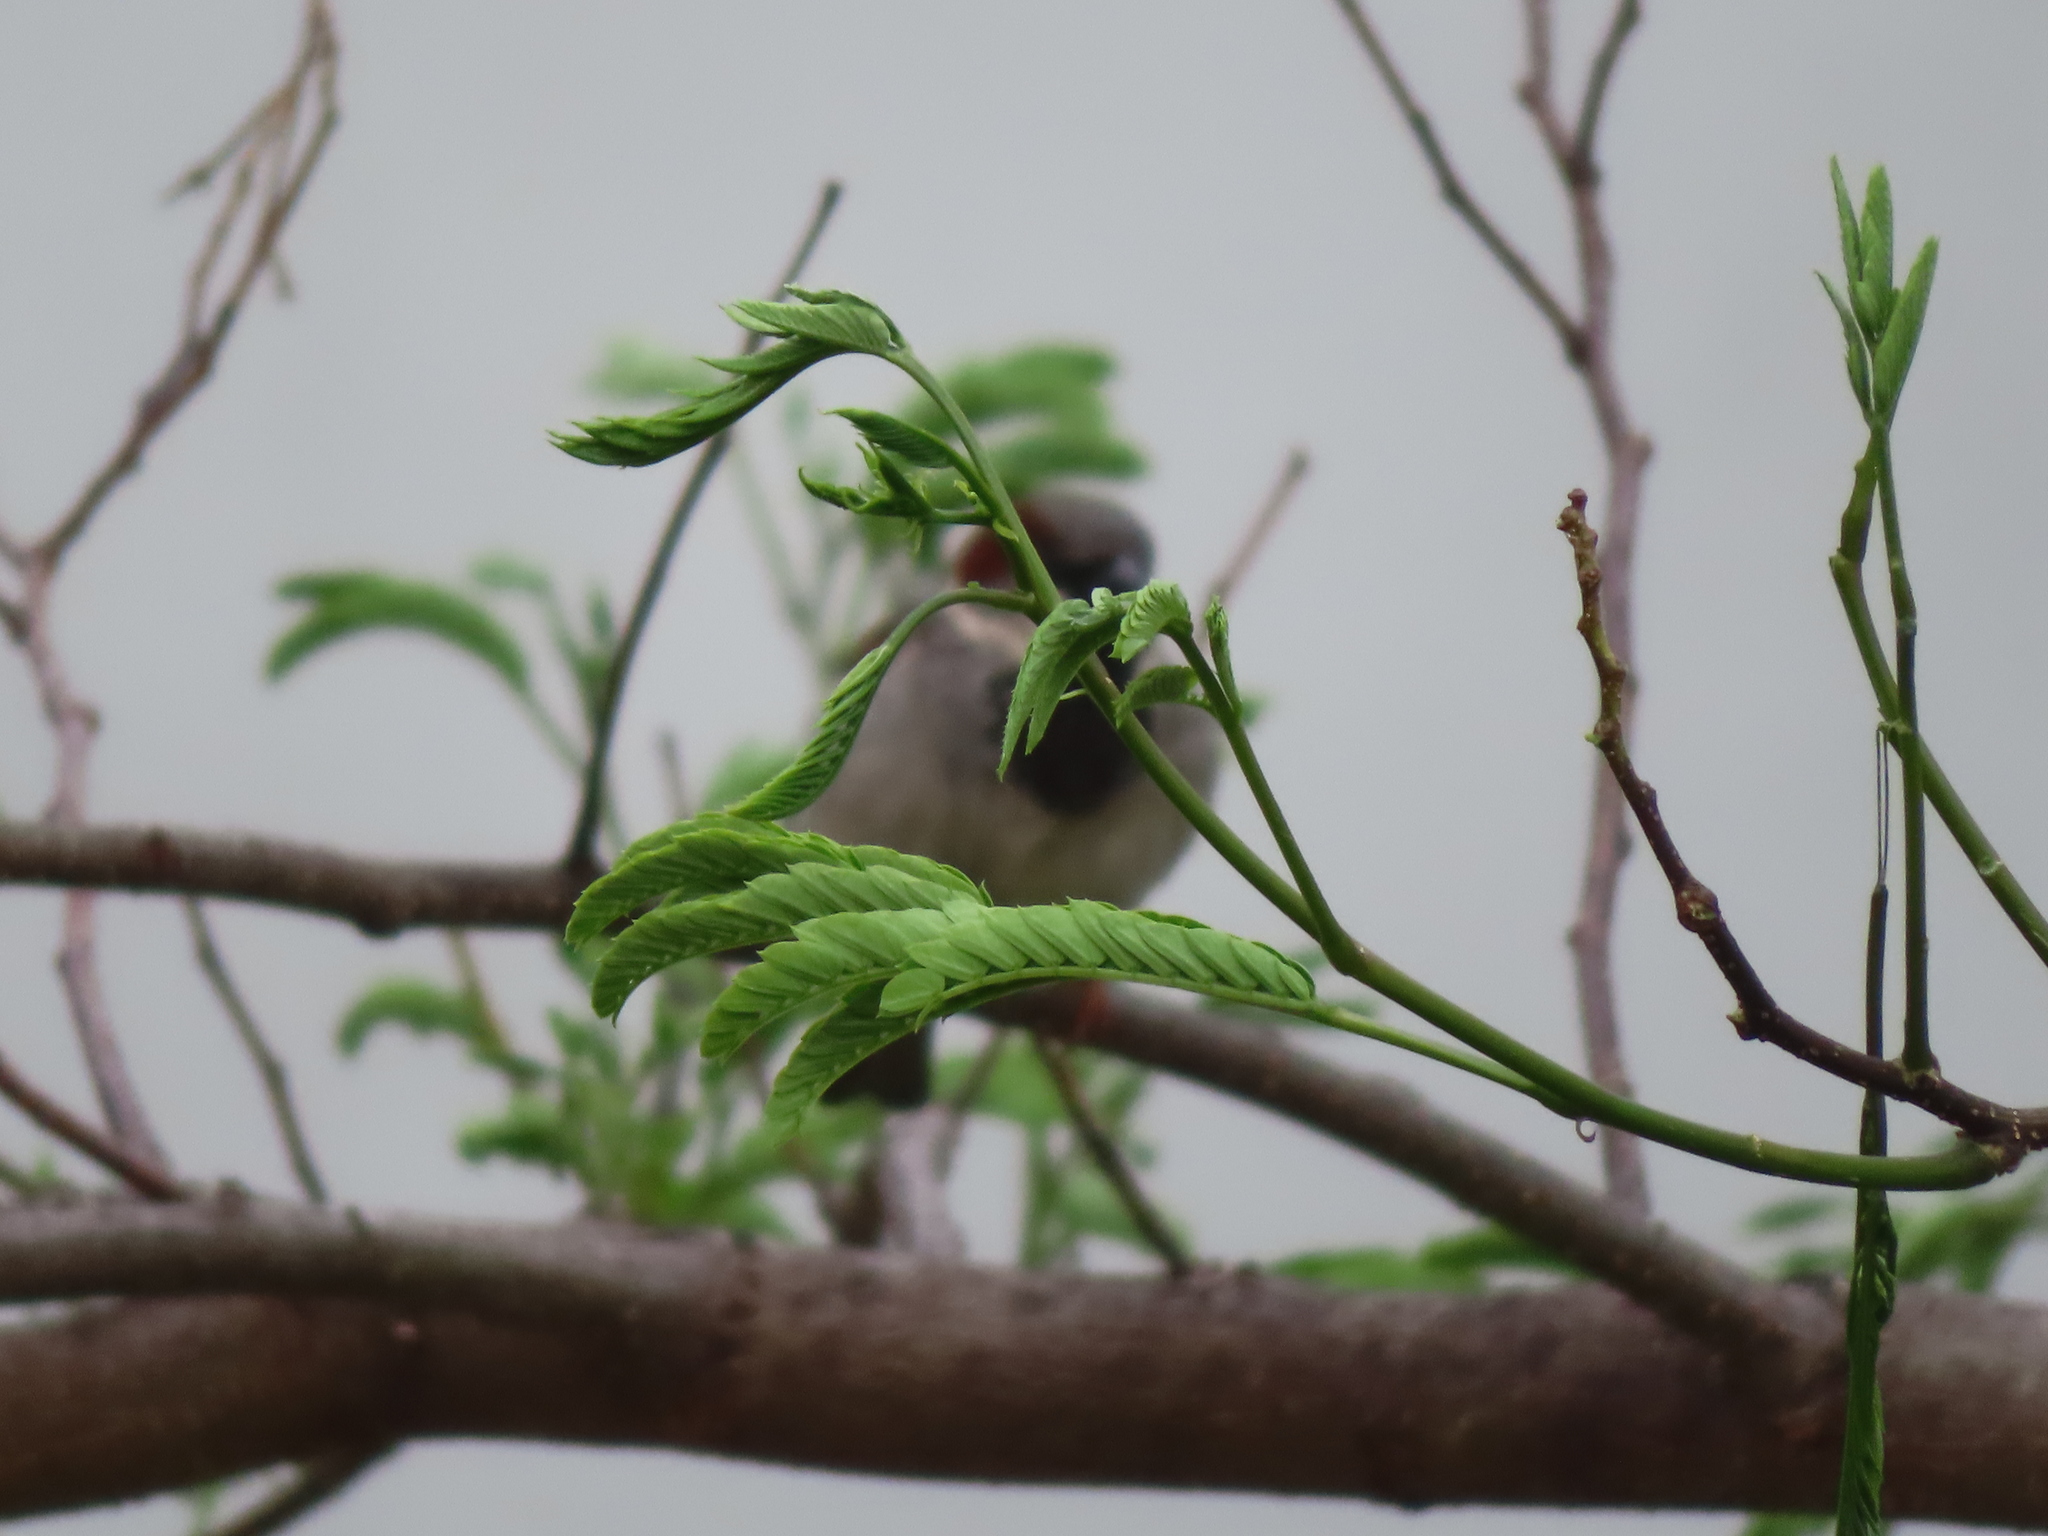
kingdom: Animalia
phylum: Chordata
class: Aves
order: Passeriformes
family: Passeridae
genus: Passer
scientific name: Passer domesticus
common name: House sparrow
